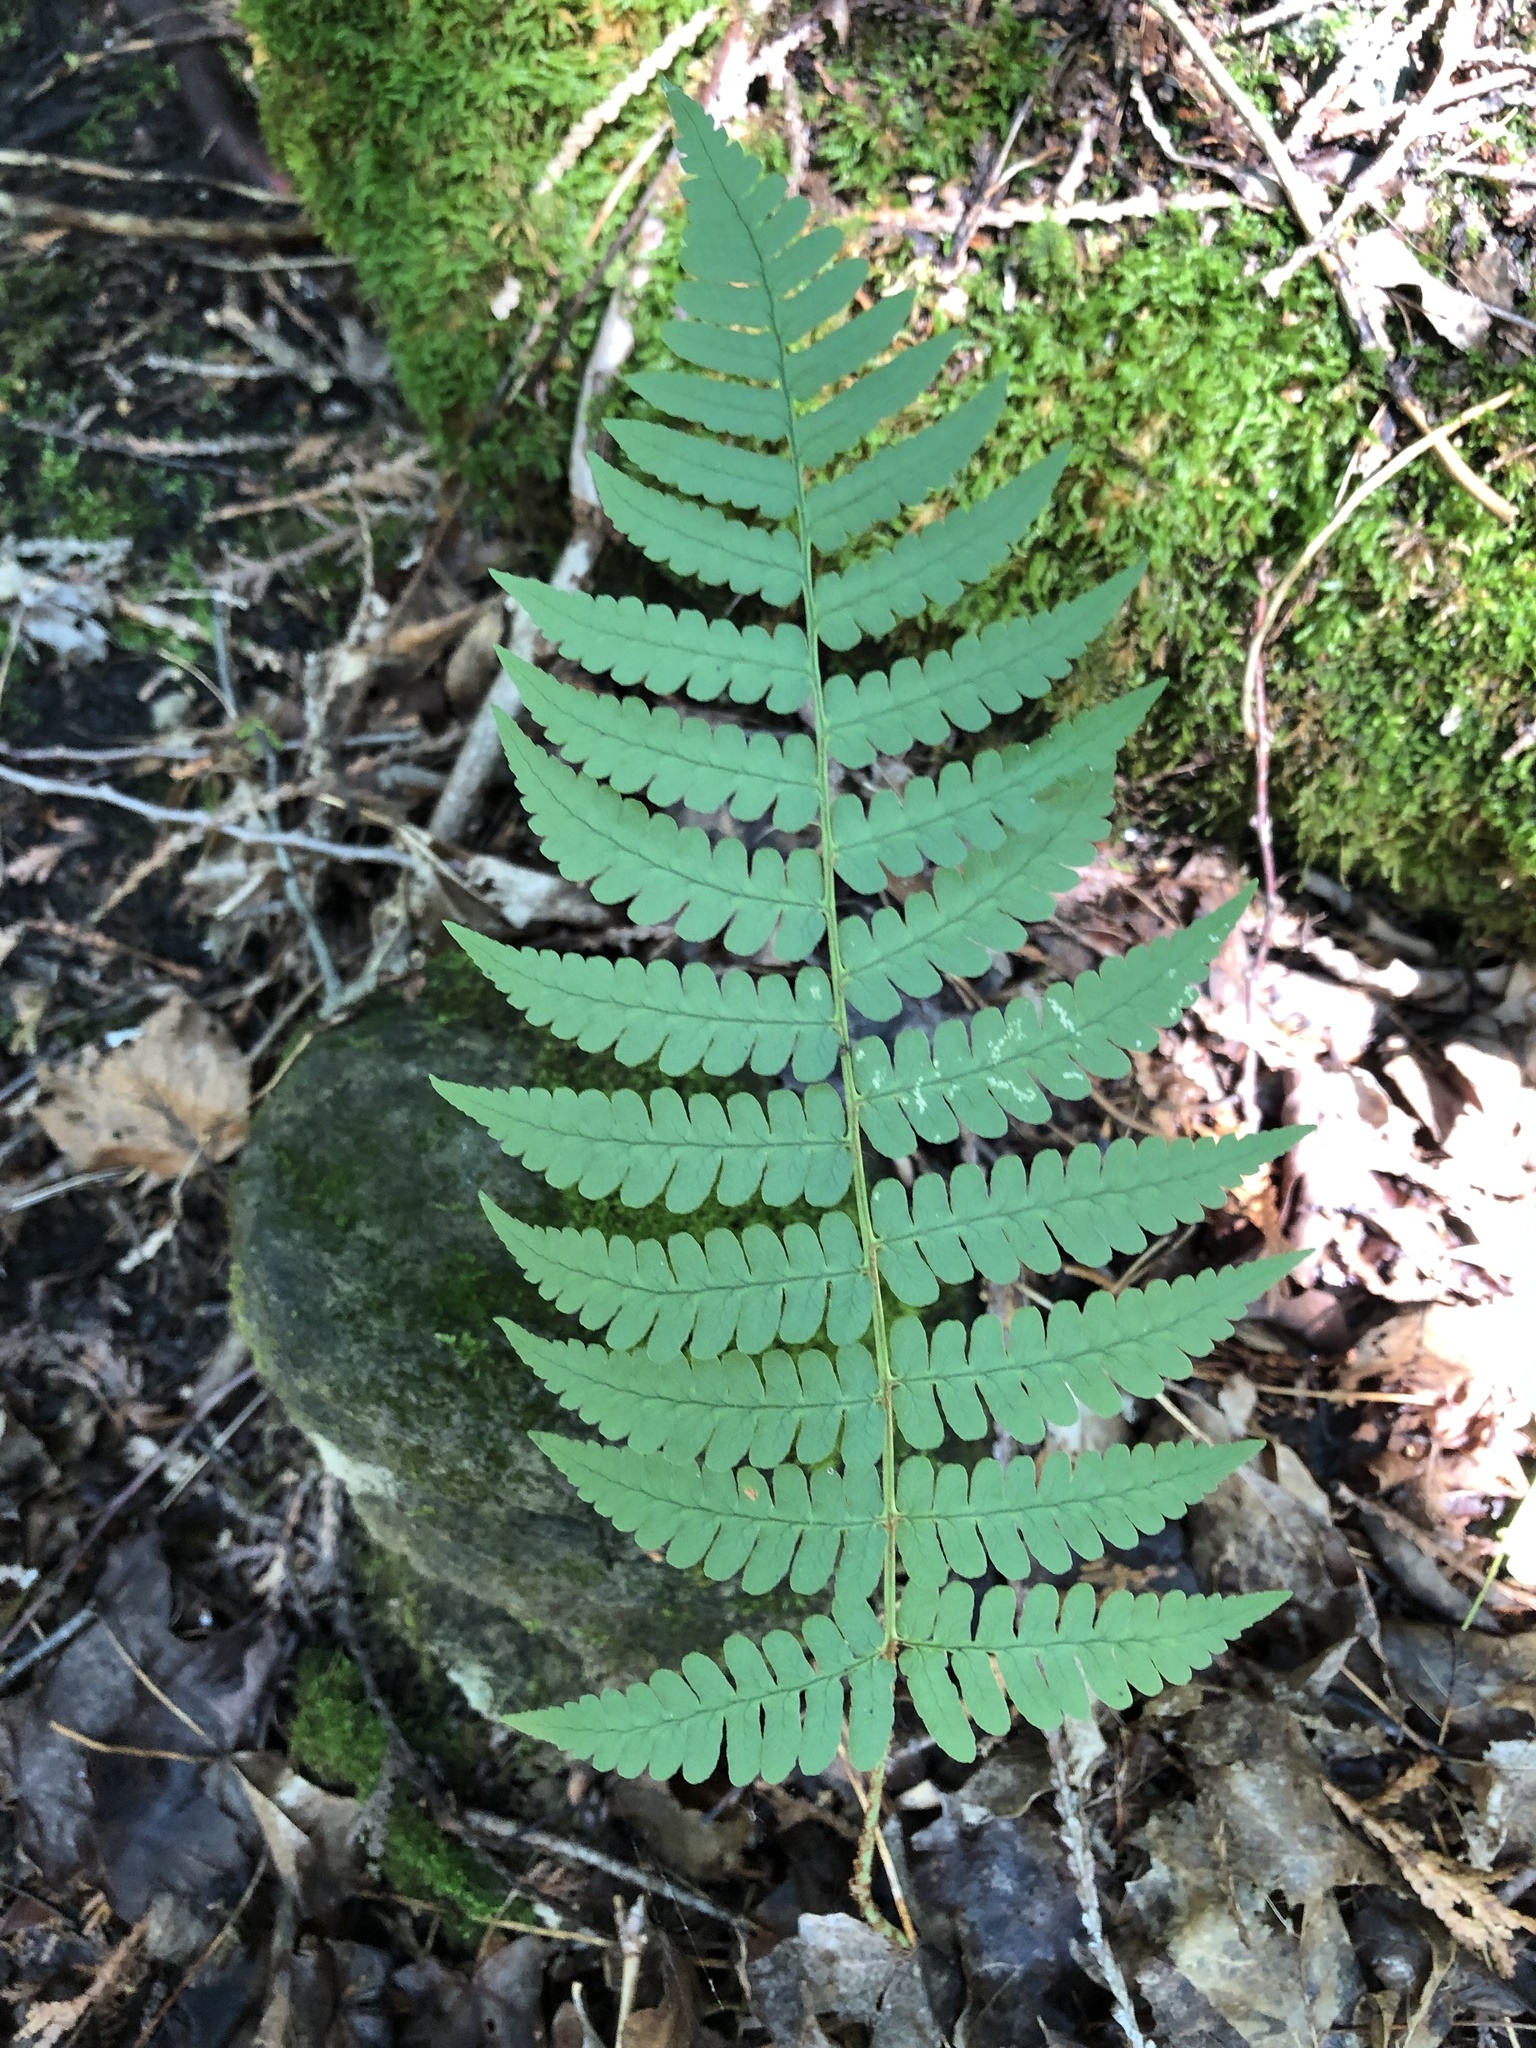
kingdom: Plantae
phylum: Tracheophyta
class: Polypodiopsida
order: Polypodiales
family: Dryopteridaceae
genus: Dryopteris
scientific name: Dryopteris marginalis
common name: Marginal wood fern
